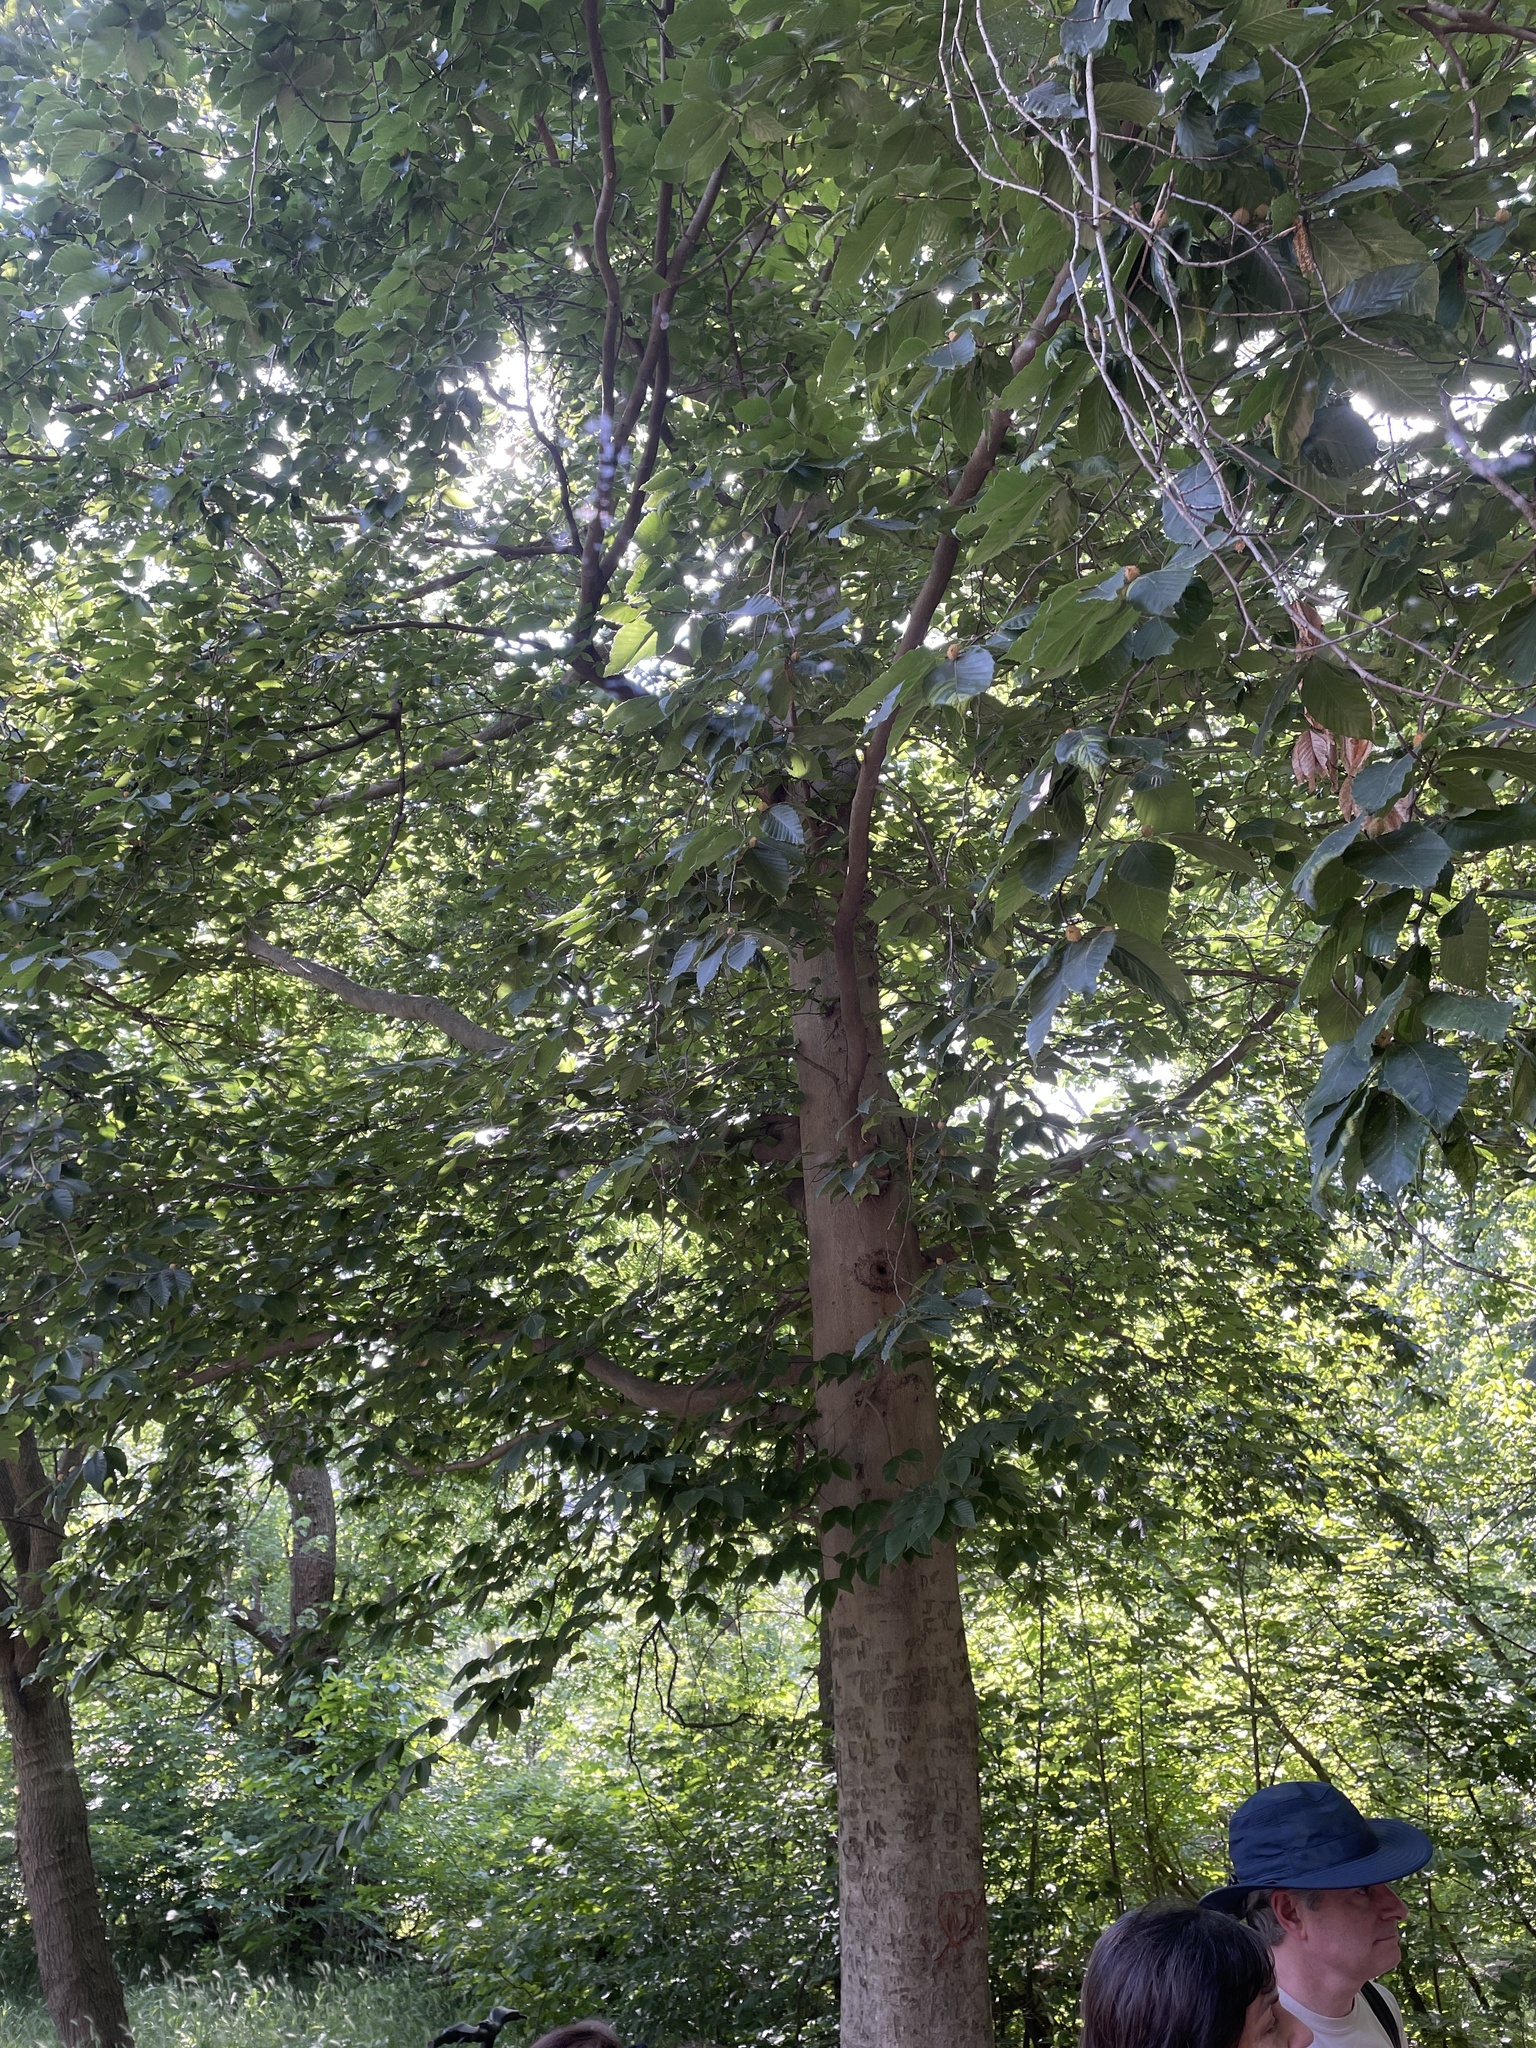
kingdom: Plantae
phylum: Tracheophyta
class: Magnoliopsida
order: Fagales
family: Fagaceae
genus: Fagus
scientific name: Fagus grandifolia
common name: American beech
